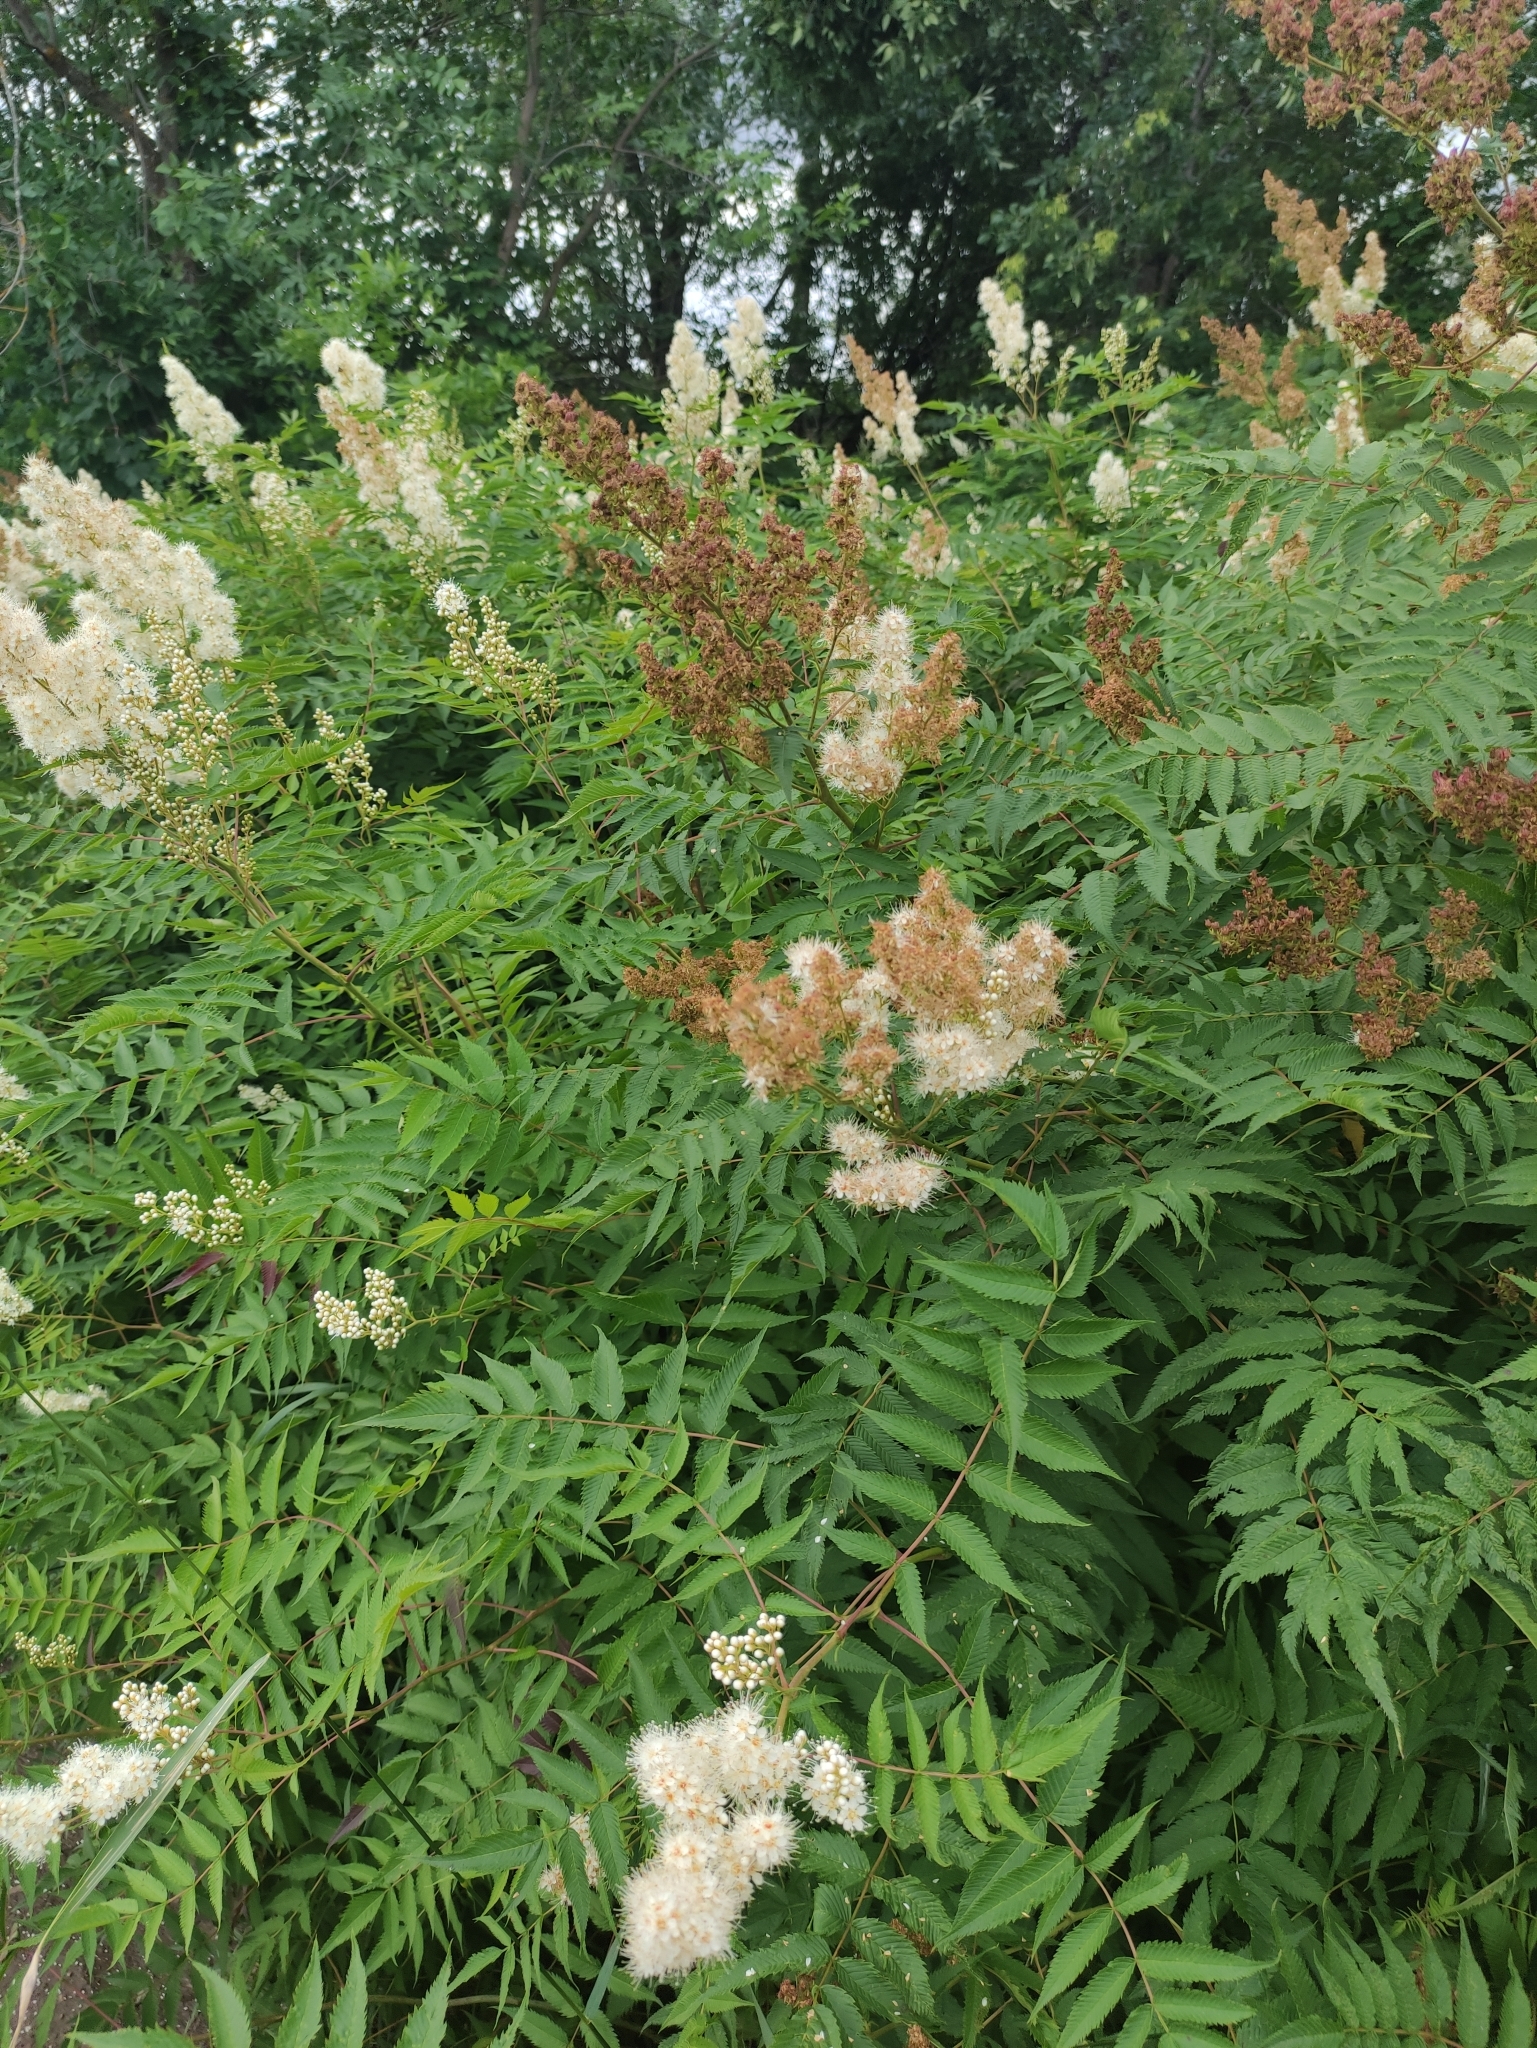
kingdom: Plantae
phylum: Tracheophyta
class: Magnoliopsida
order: Rosales
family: Rosaceae
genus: Sorbaria
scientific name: Sorbaria sorbifolia
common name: False spiraea
